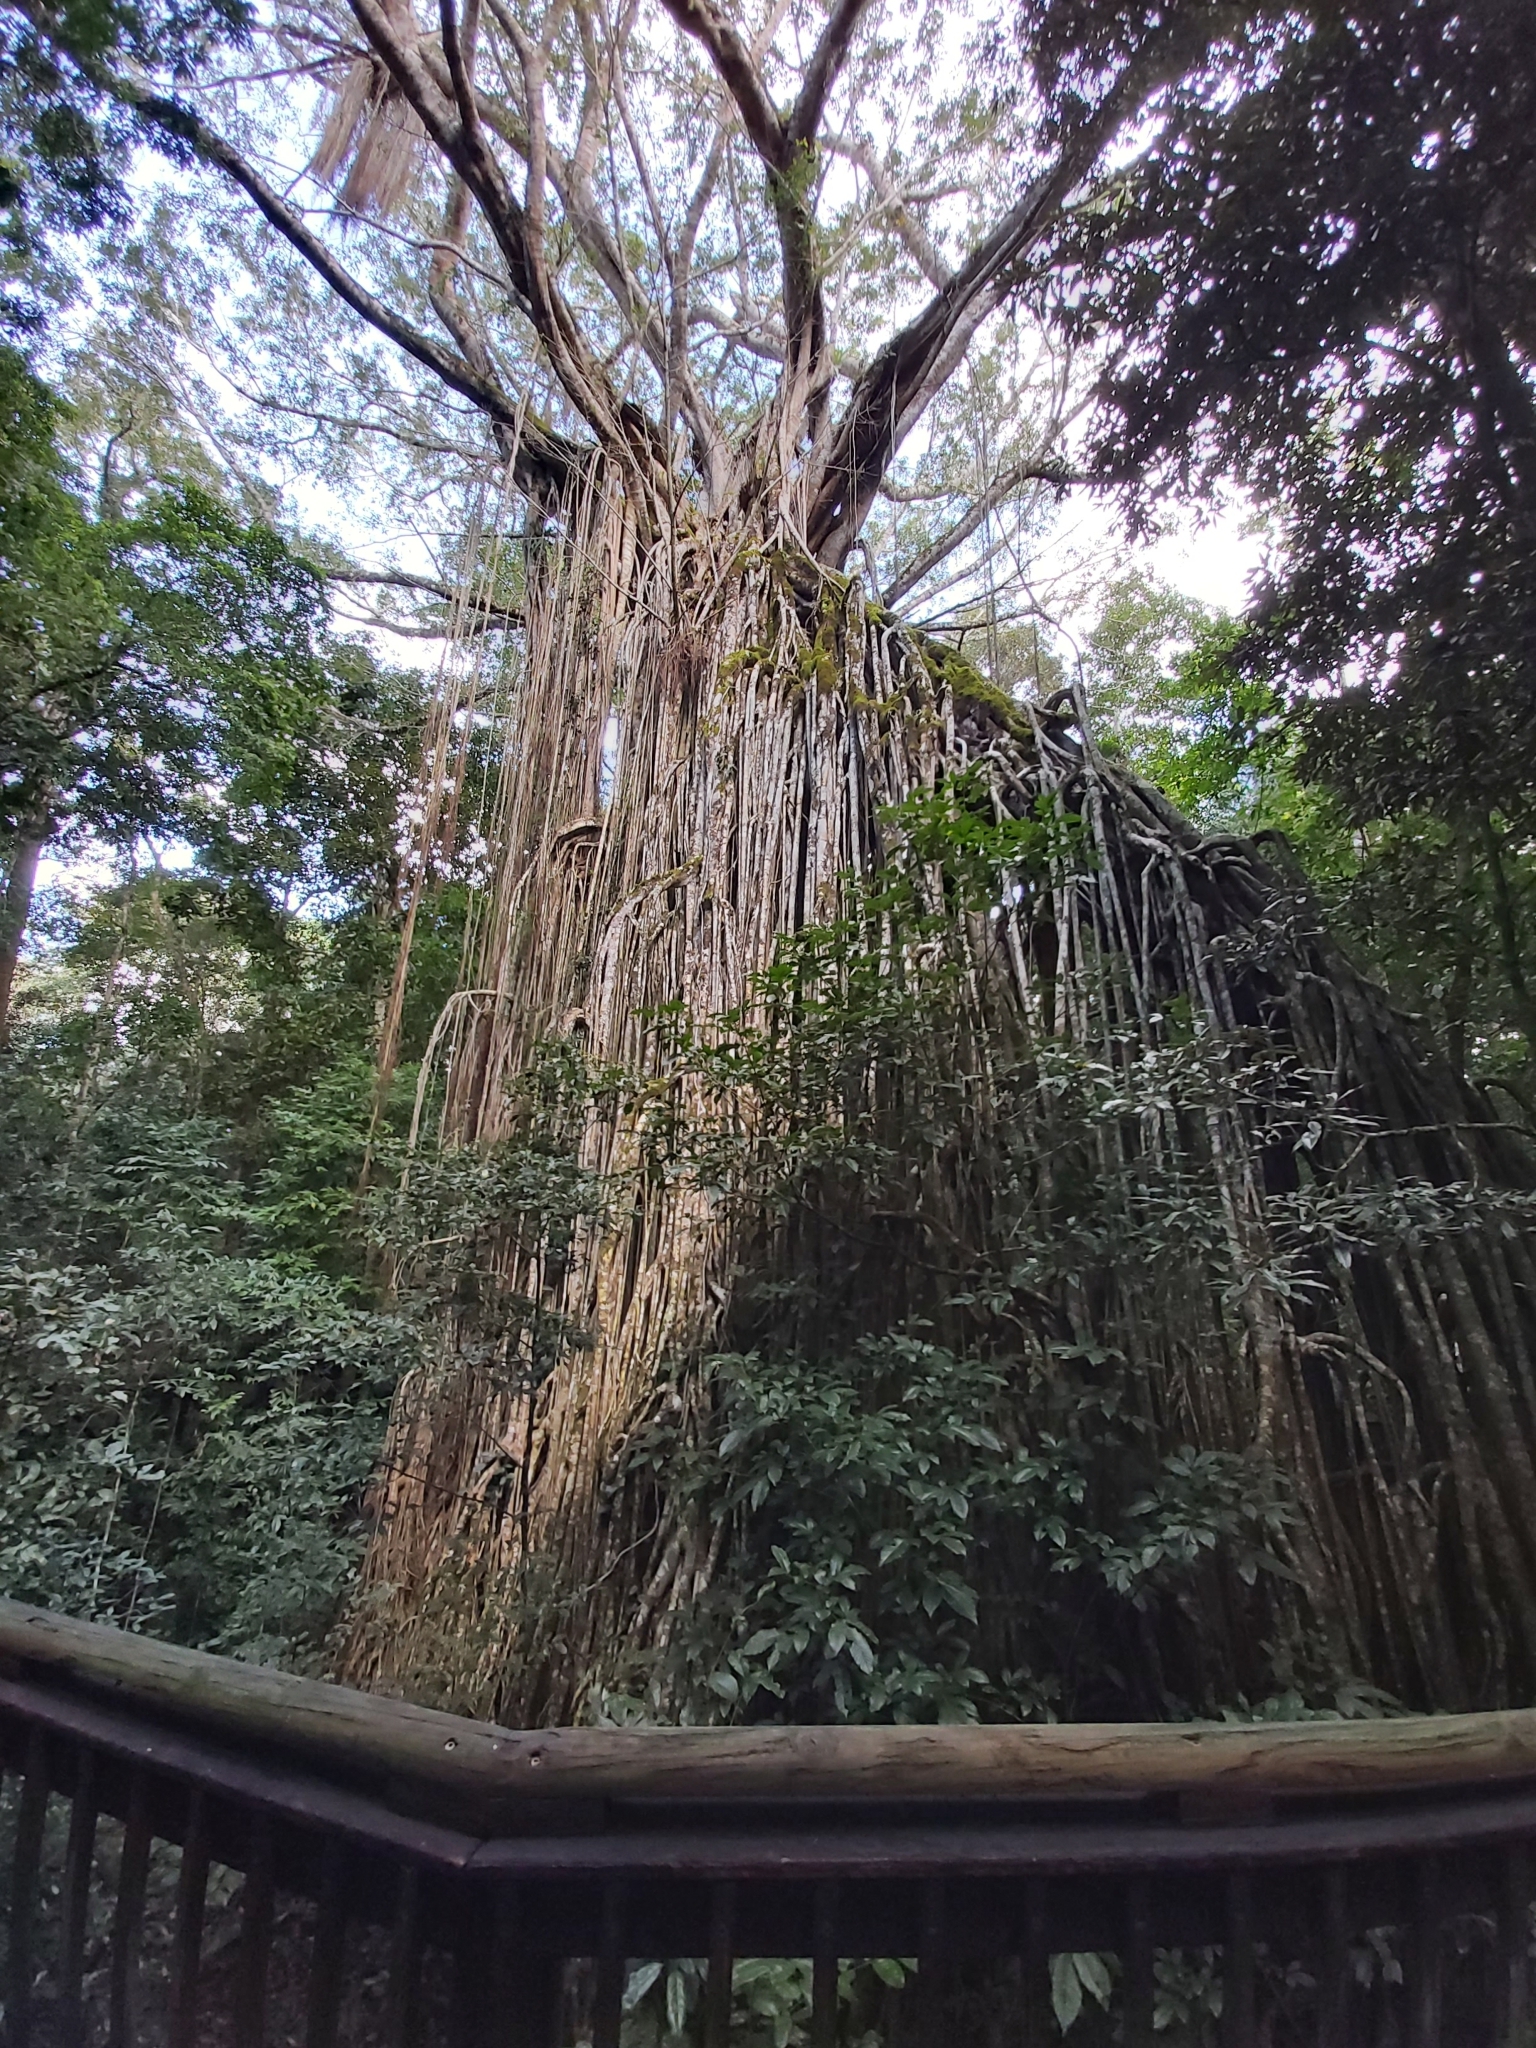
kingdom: Plantae
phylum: Tracheophyta
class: Magnoliopsida
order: Rosales
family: Moraceae
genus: Ficus
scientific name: Ficus virens
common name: Spotted fig
